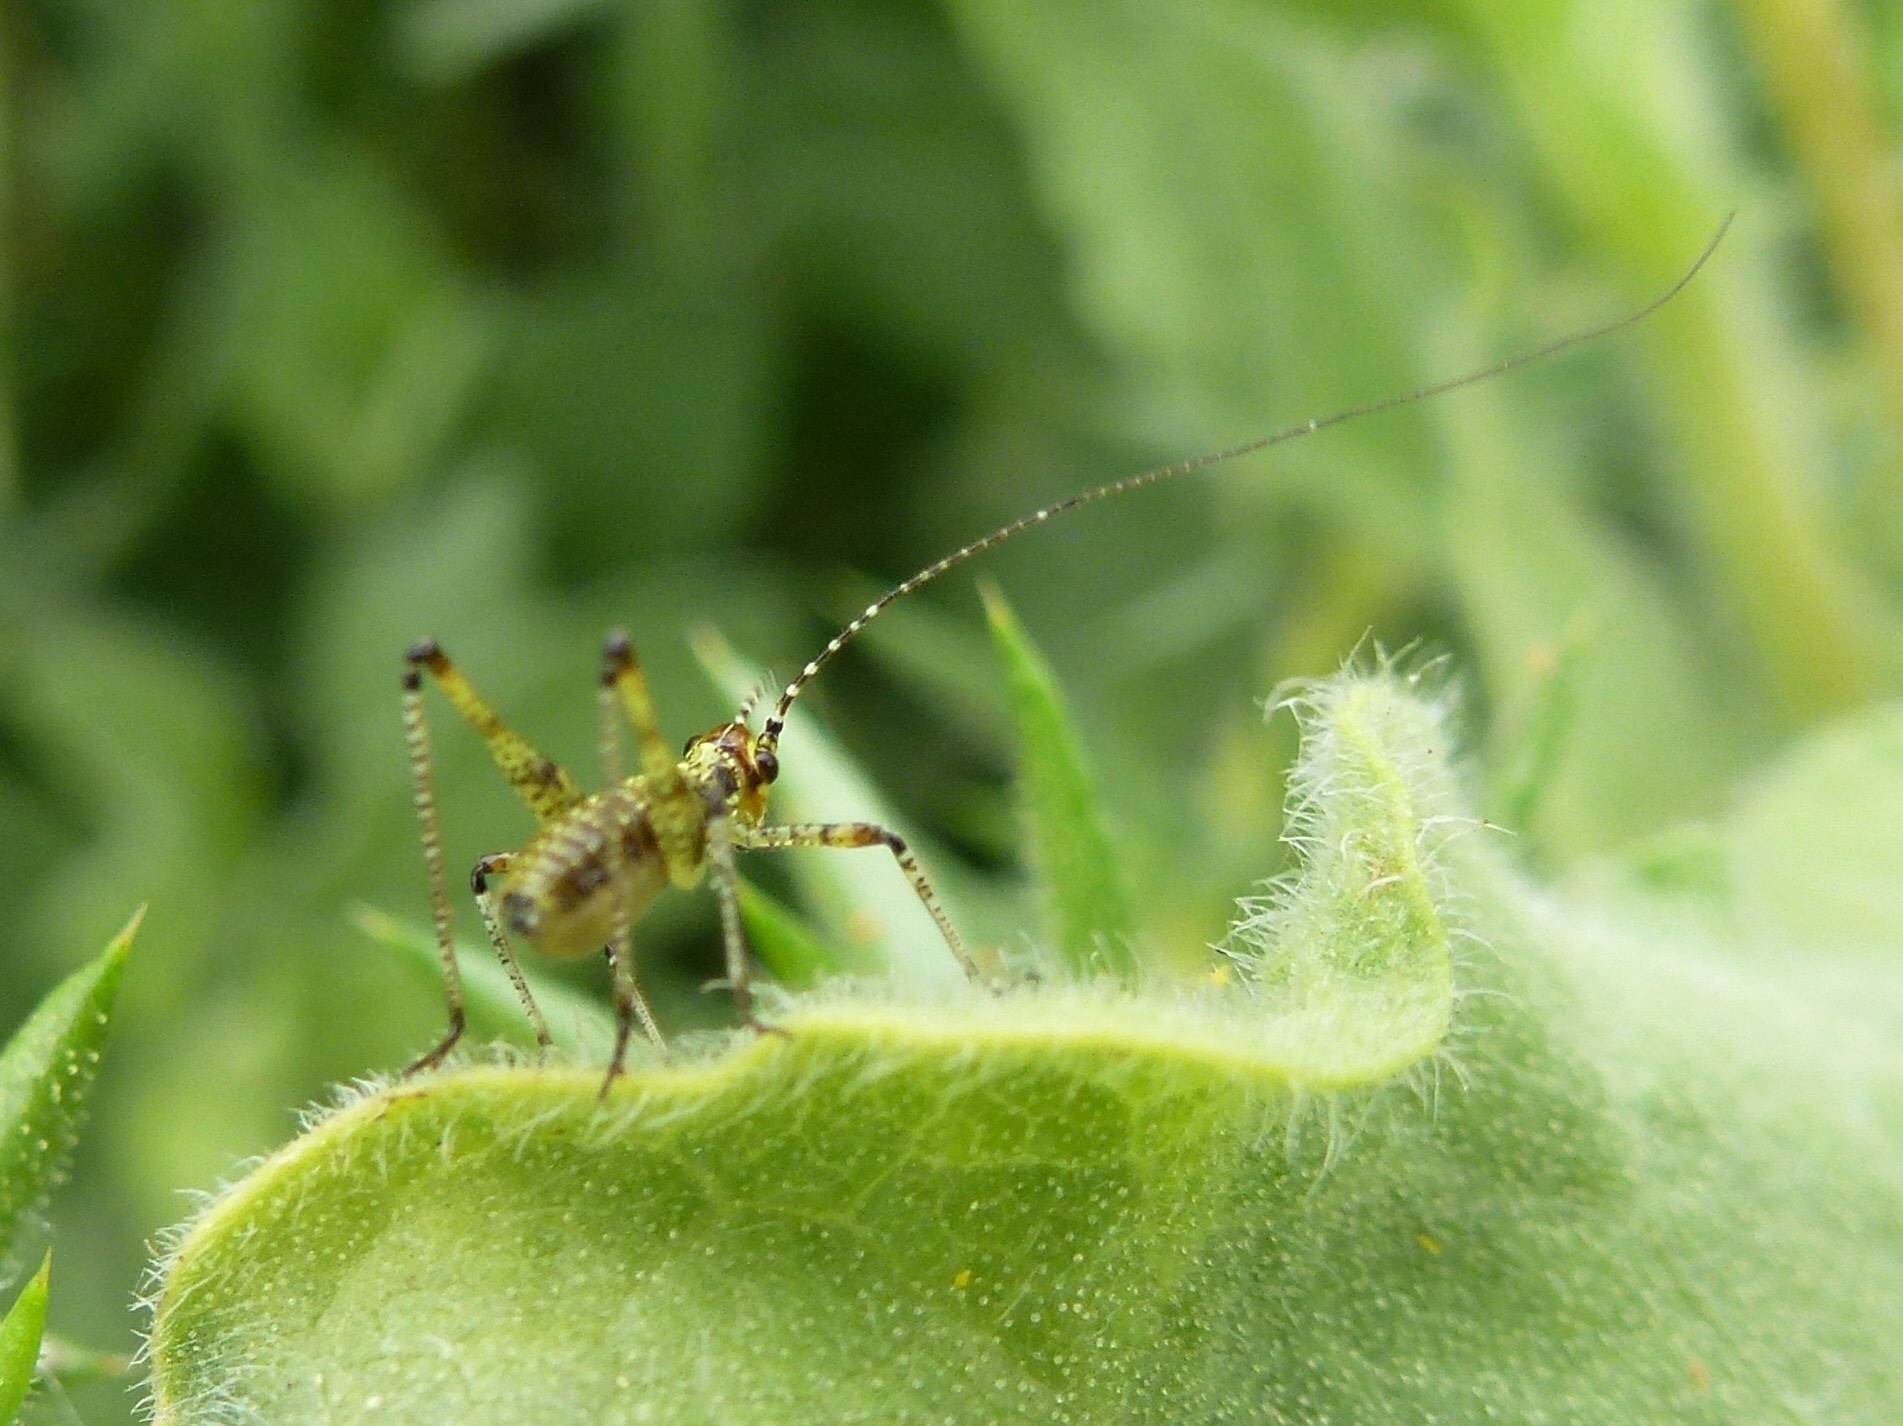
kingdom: Animalia
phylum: Arthropoda
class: Insecta
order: Orthoptera
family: Tettigoniidae
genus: Phaneroptera
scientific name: Phaneroptera nana
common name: Southern sickle bush-cricket
